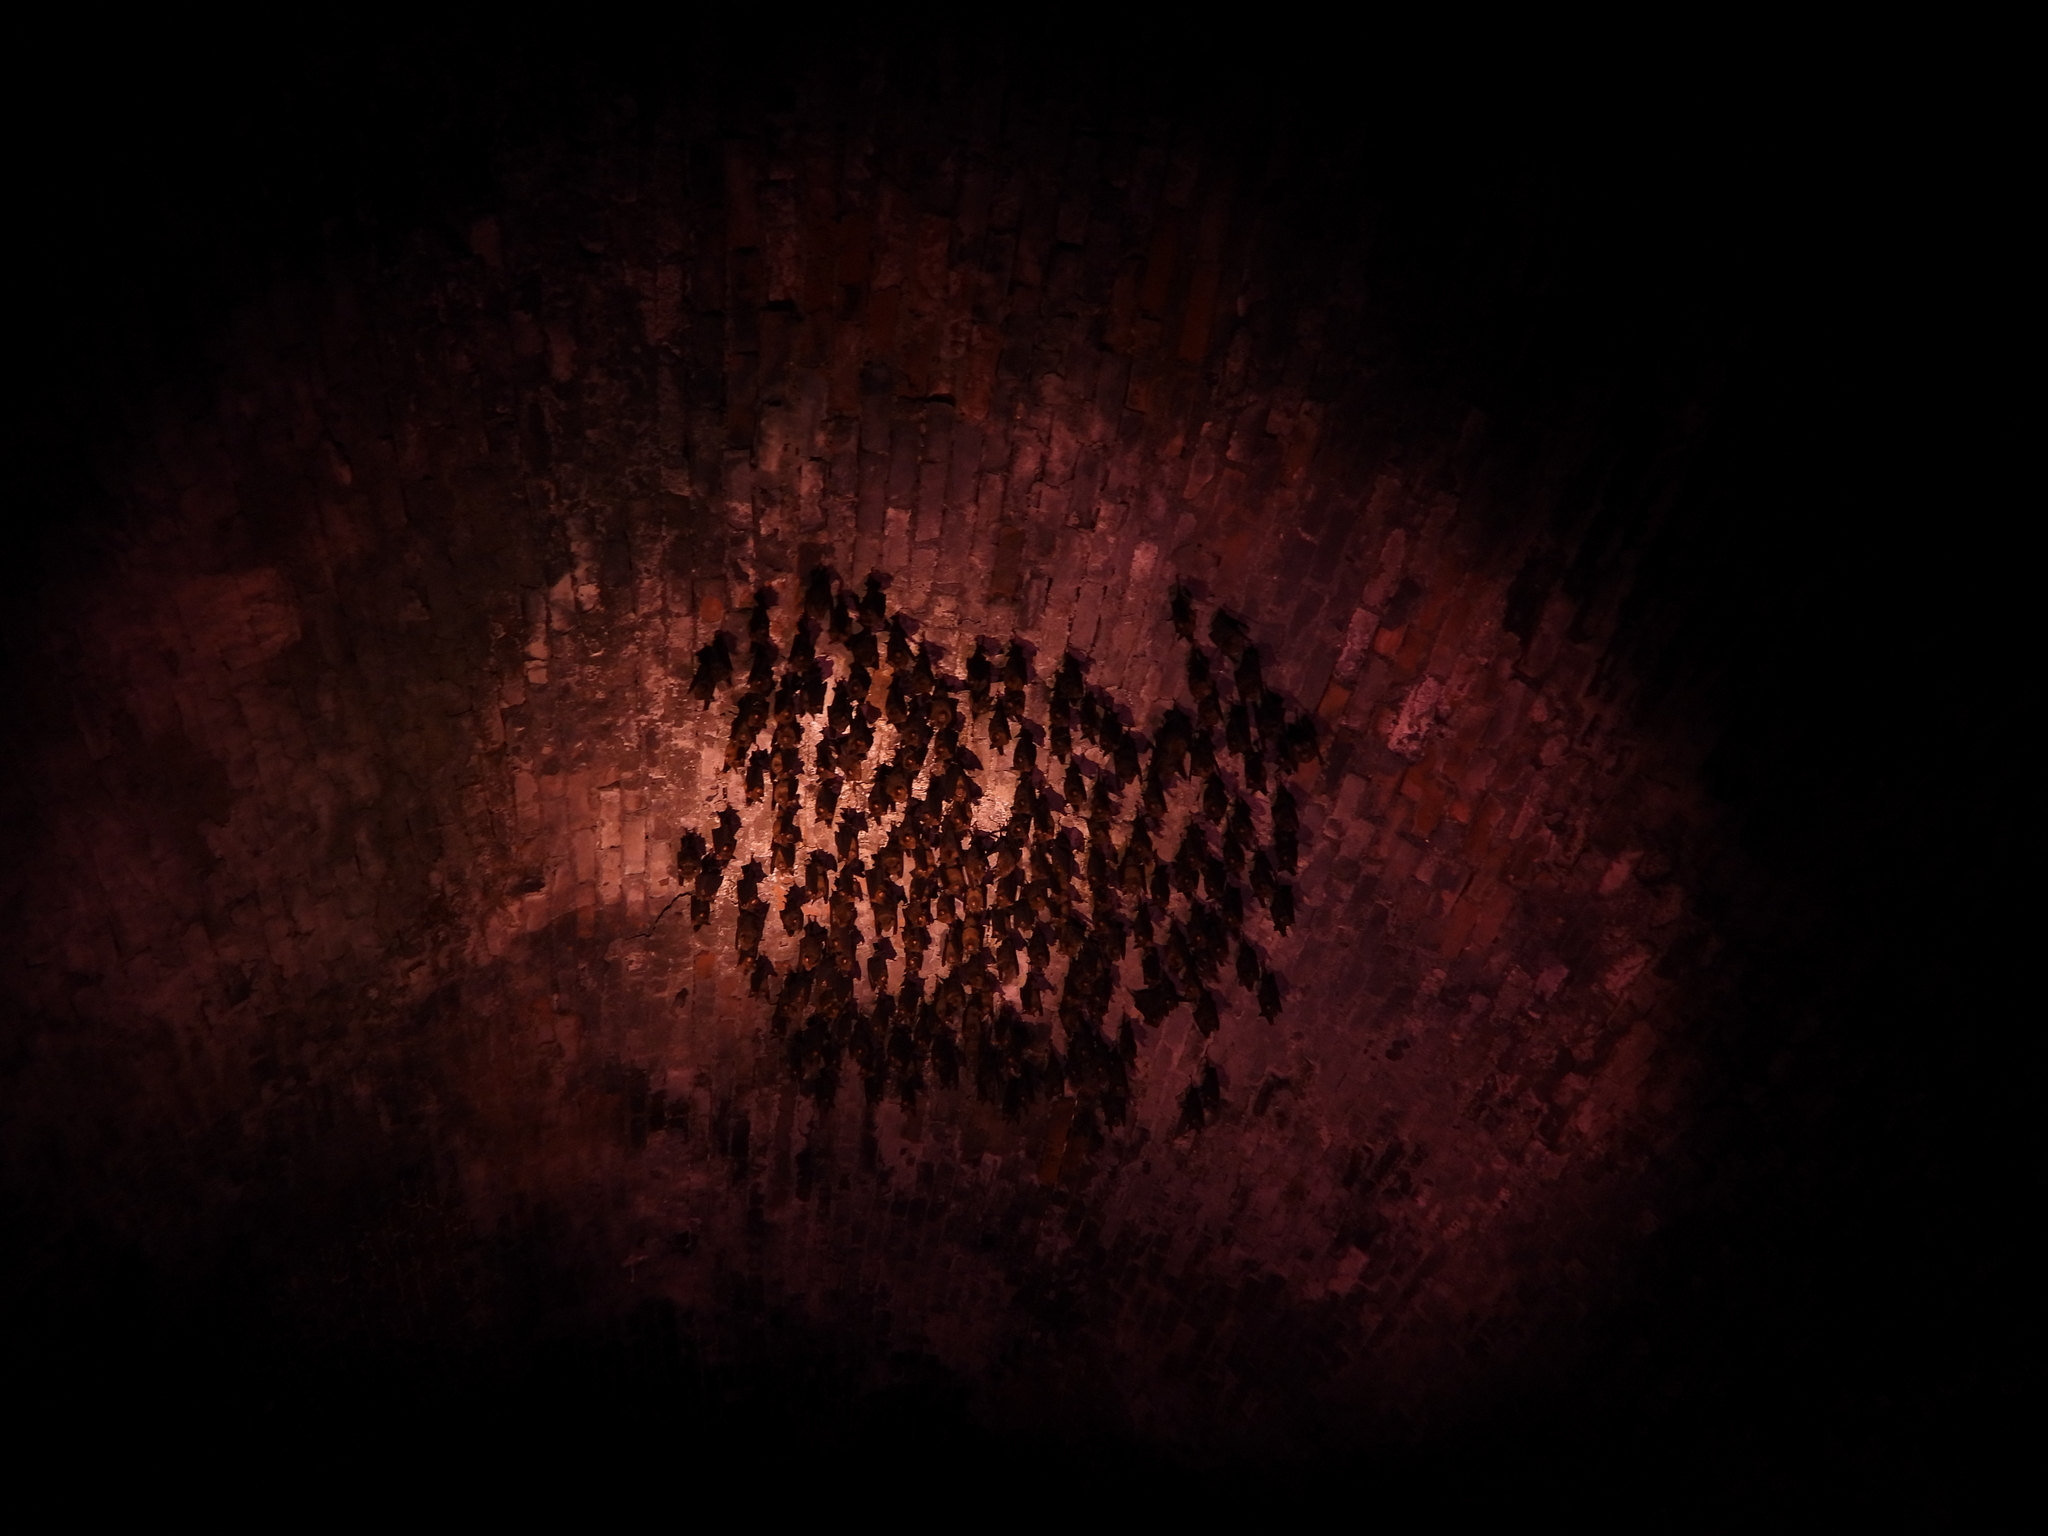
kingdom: Animalia
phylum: Chordata
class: Mammalia
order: Chiroptera
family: Hipposideridae
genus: Hipposideros
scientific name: Hipposideros armiger
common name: Great leaf-nosed bat
